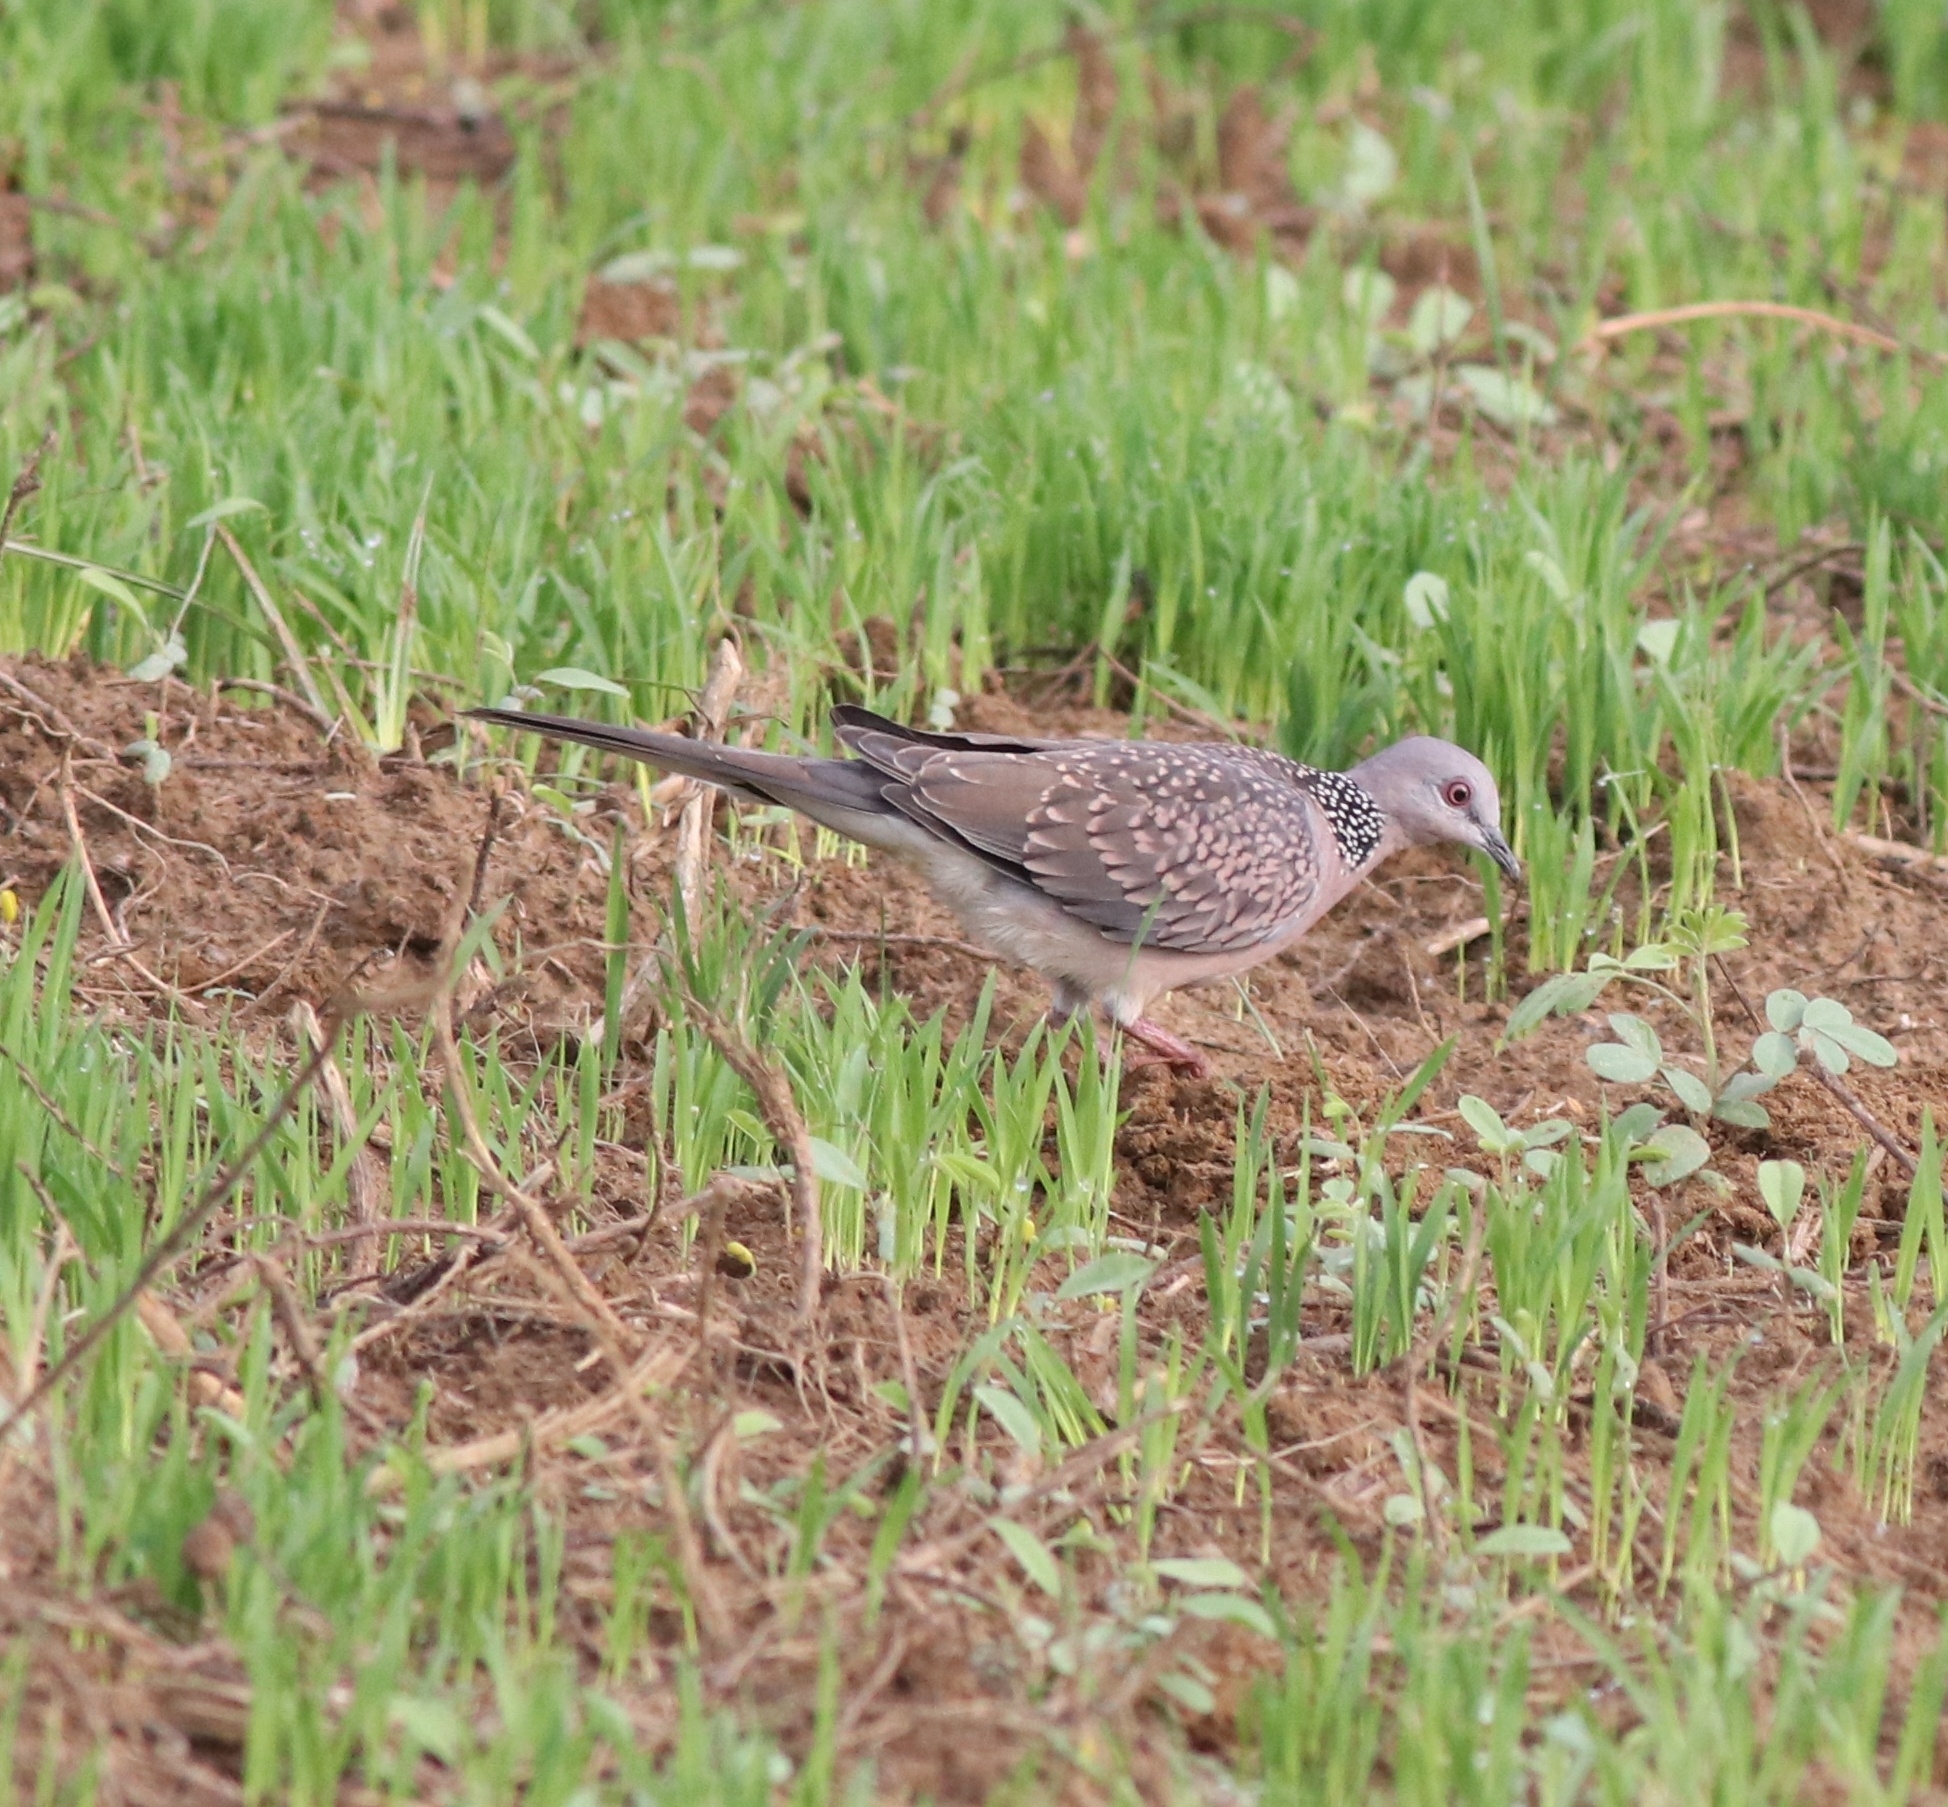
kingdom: Animalia
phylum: Chordata
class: Aves
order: Columbiformes
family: Columbidae
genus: Spilopelia
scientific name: Spilopelia chinensis
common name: Spotted dove
